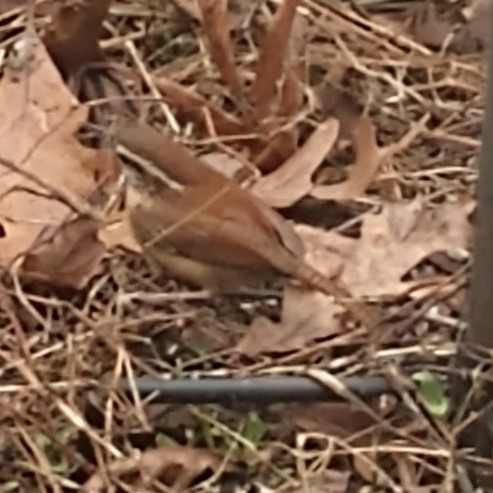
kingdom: Animalia
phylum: Chordata
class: Aves
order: Passeriformes
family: Troglodytidae
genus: Thryothorus
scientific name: Thryothorus ludovicianus
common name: Carolina wren
